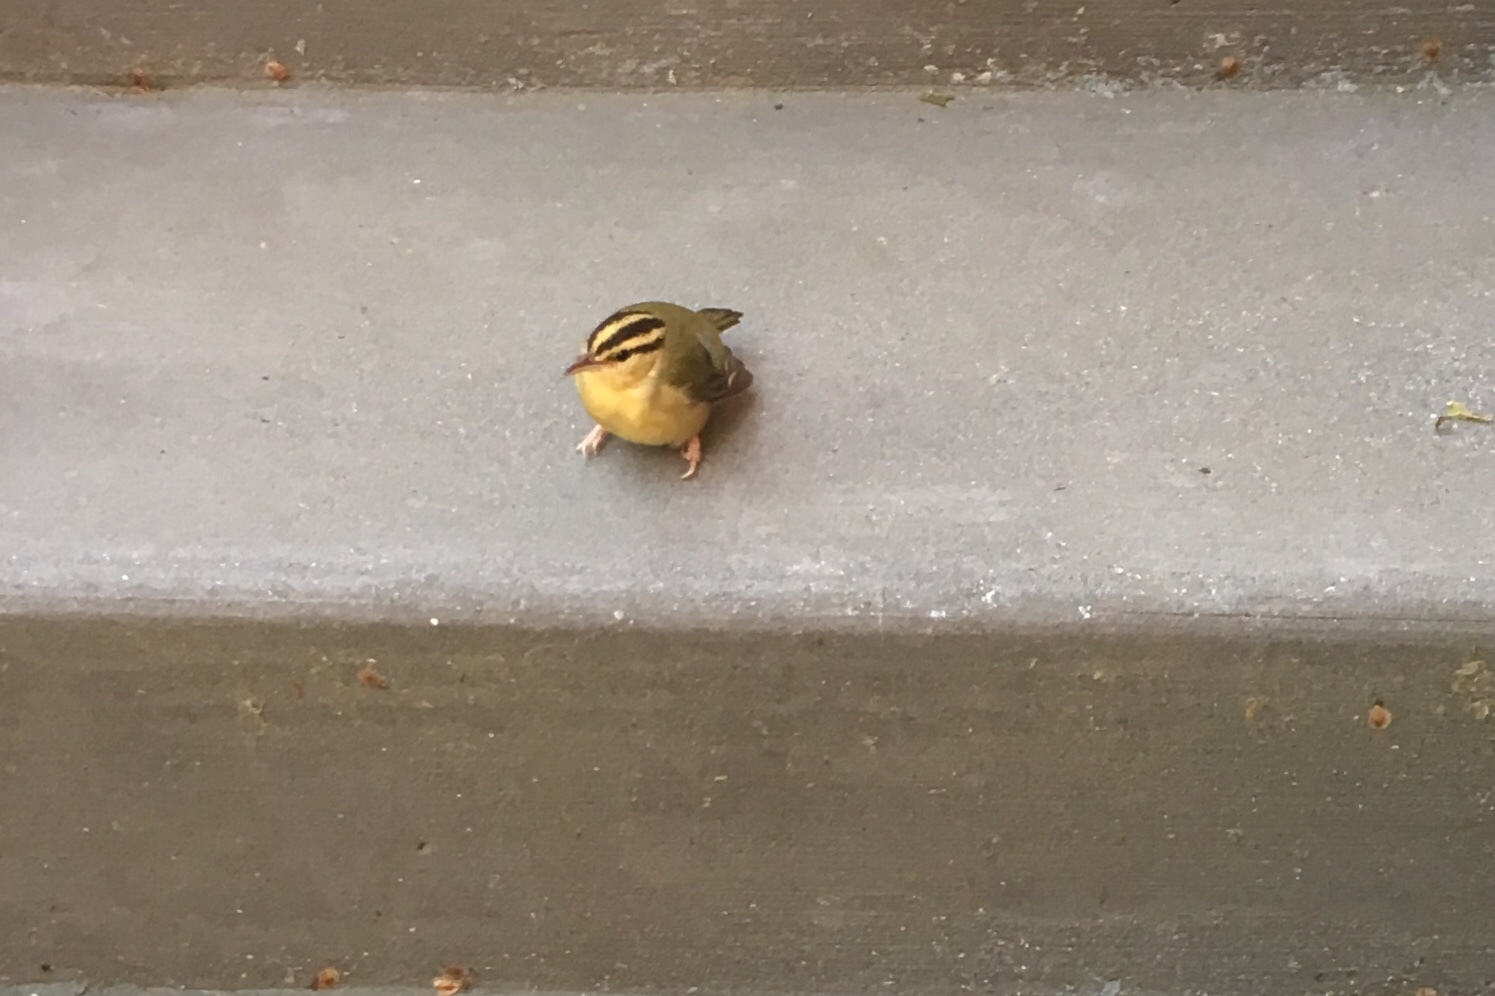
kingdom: Animalia
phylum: Chordata
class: Aves
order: Passeriformes
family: Parulidae
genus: Helmitheros
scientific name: Helmitheros vermivorum
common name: Worm-eating warbler
